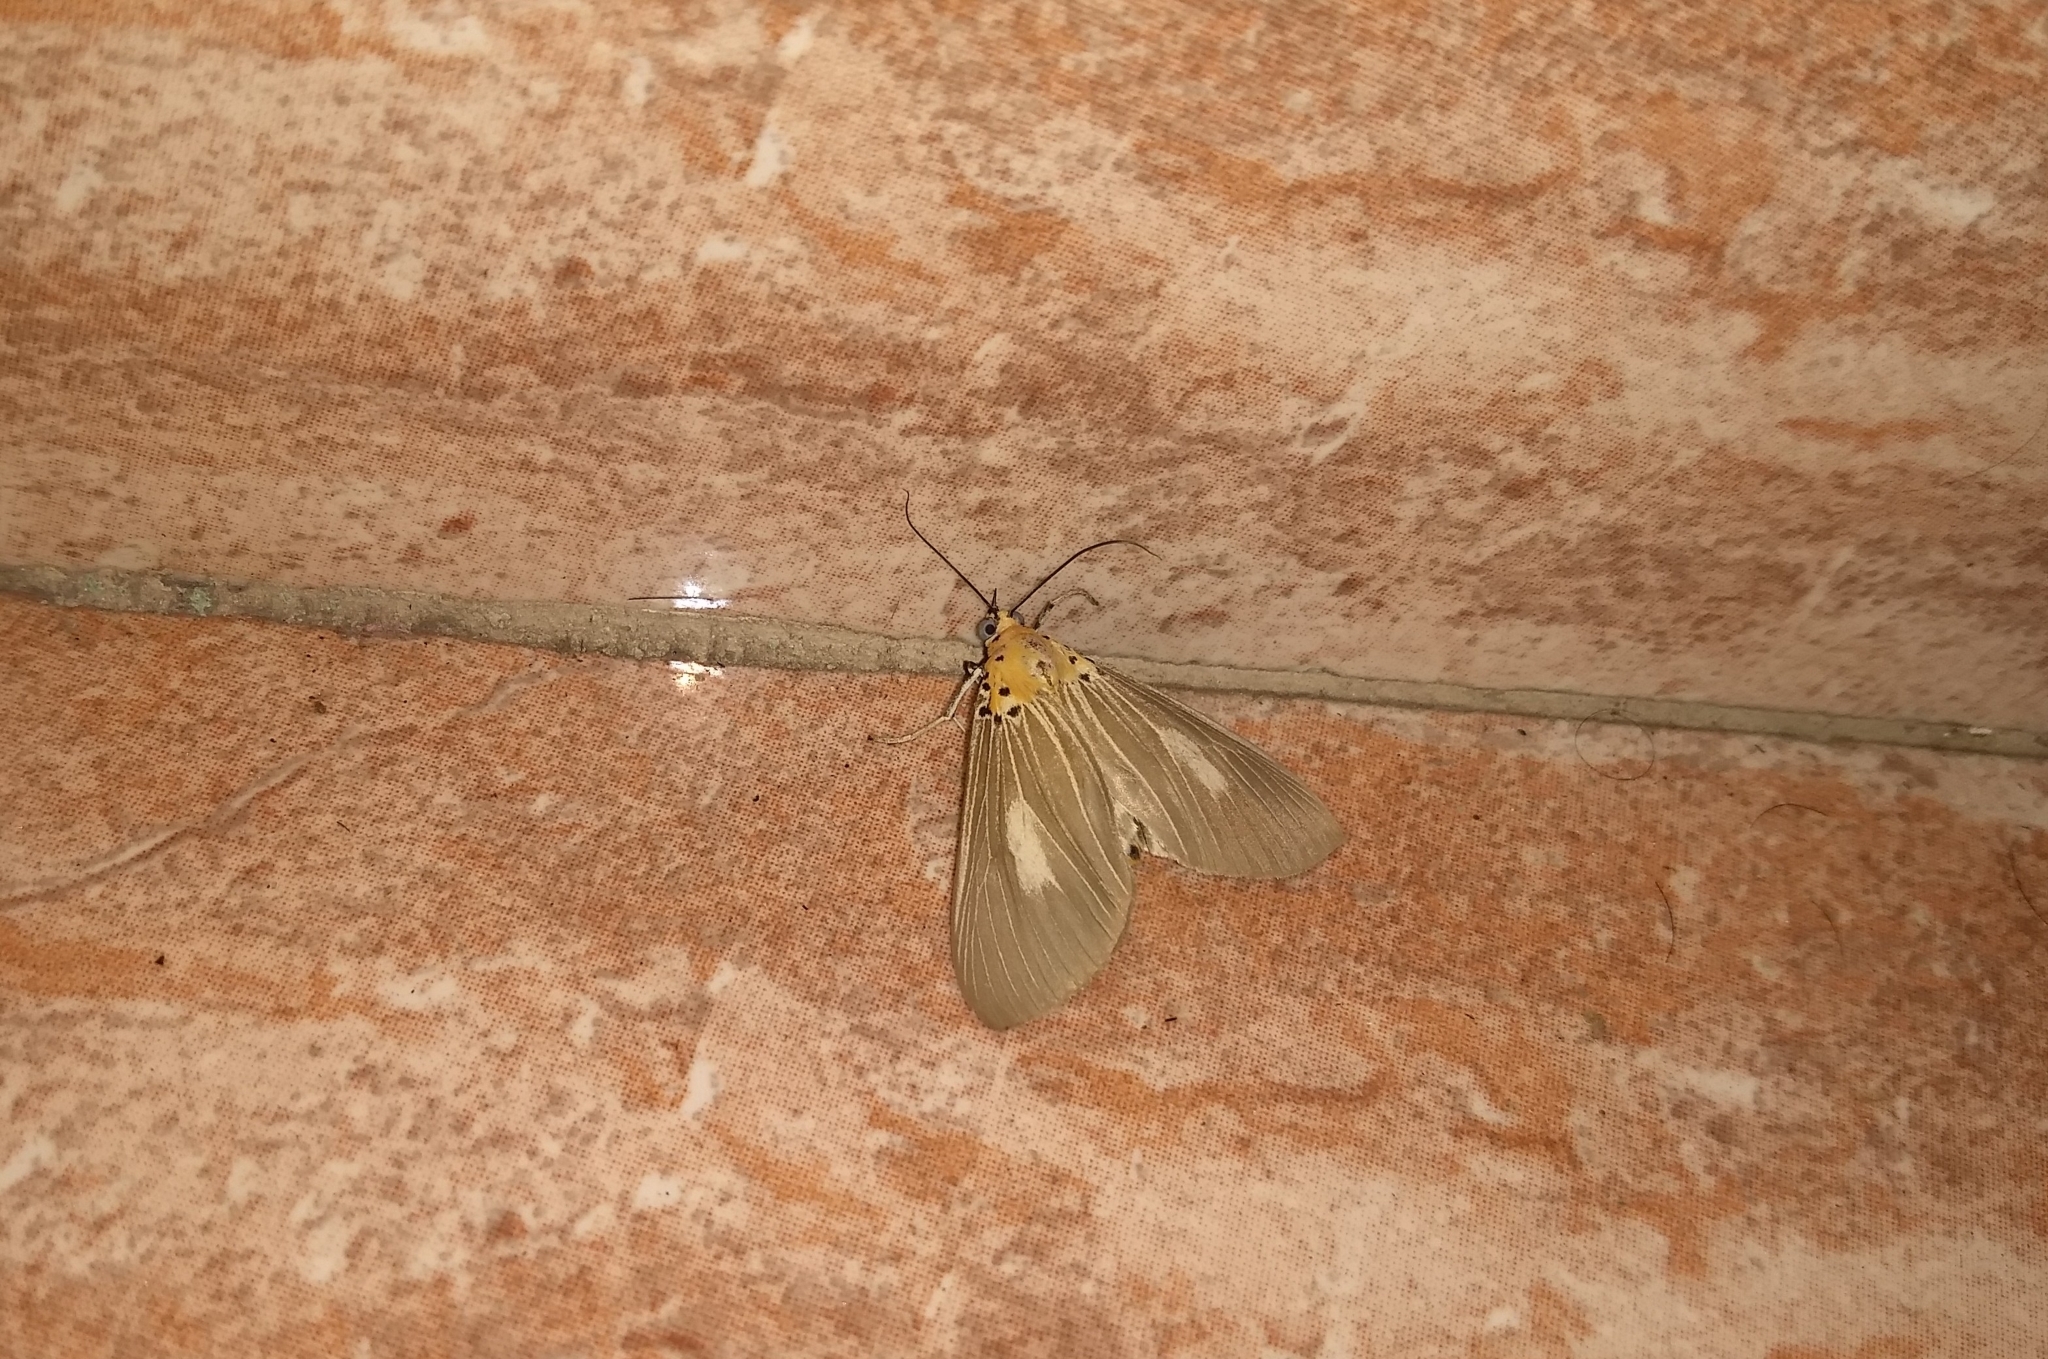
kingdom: Animalia
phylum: Arthropoda
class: Insecta
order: Lepidoptera
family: Erebidae
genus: Asota
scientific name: Asota canaraica
